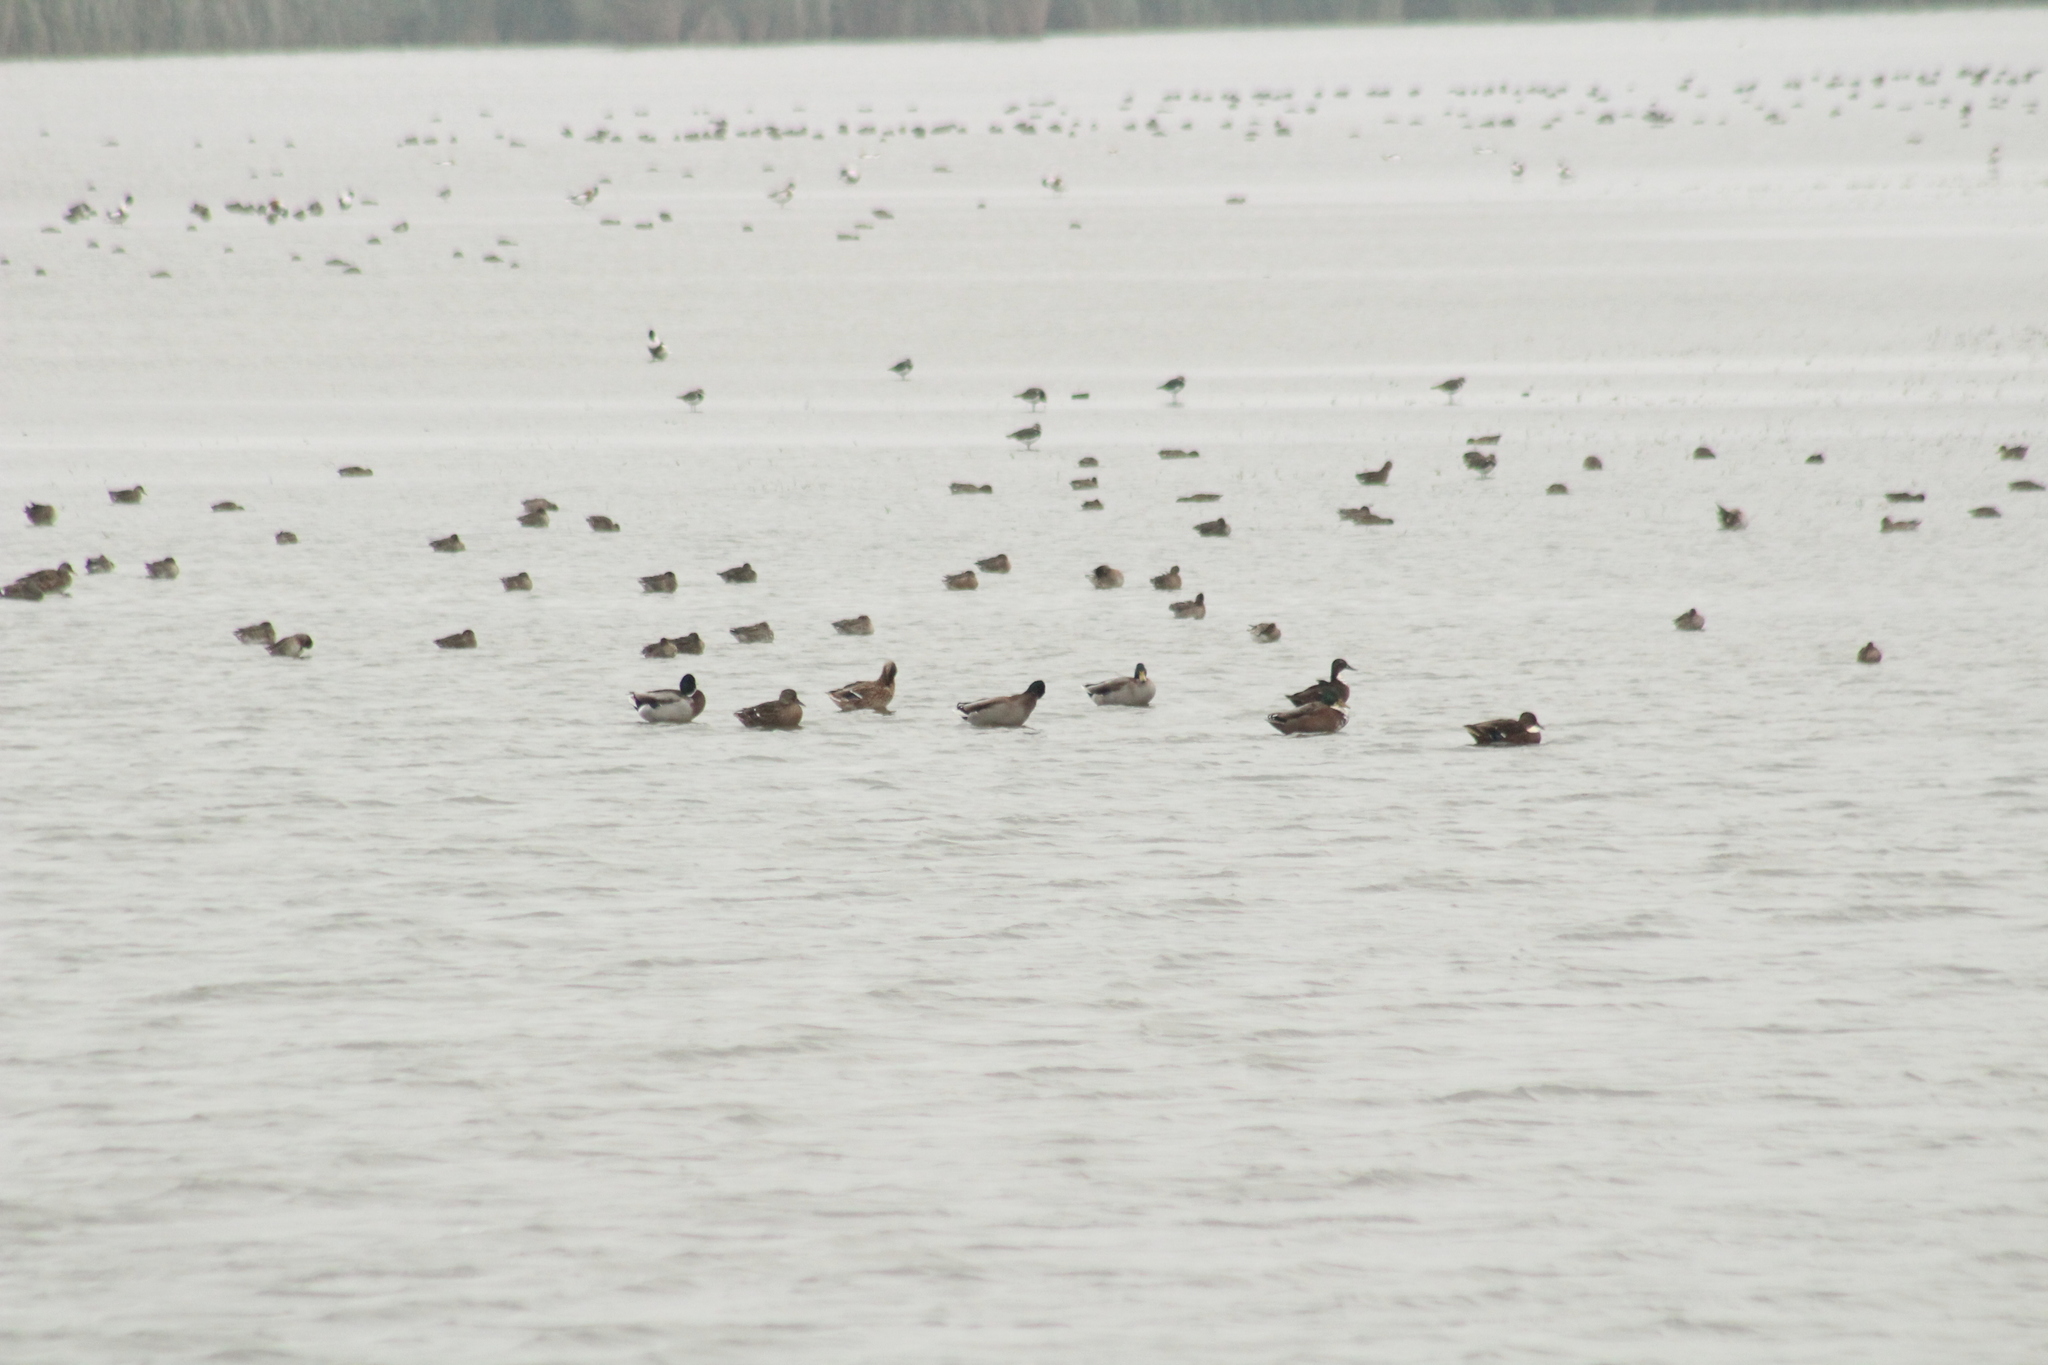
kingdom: Animalia
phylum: Chordata
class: Aves
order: Anseriformes
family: Anatidae
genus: Anas
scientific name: Anas platyrhynchos
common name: Mallard
